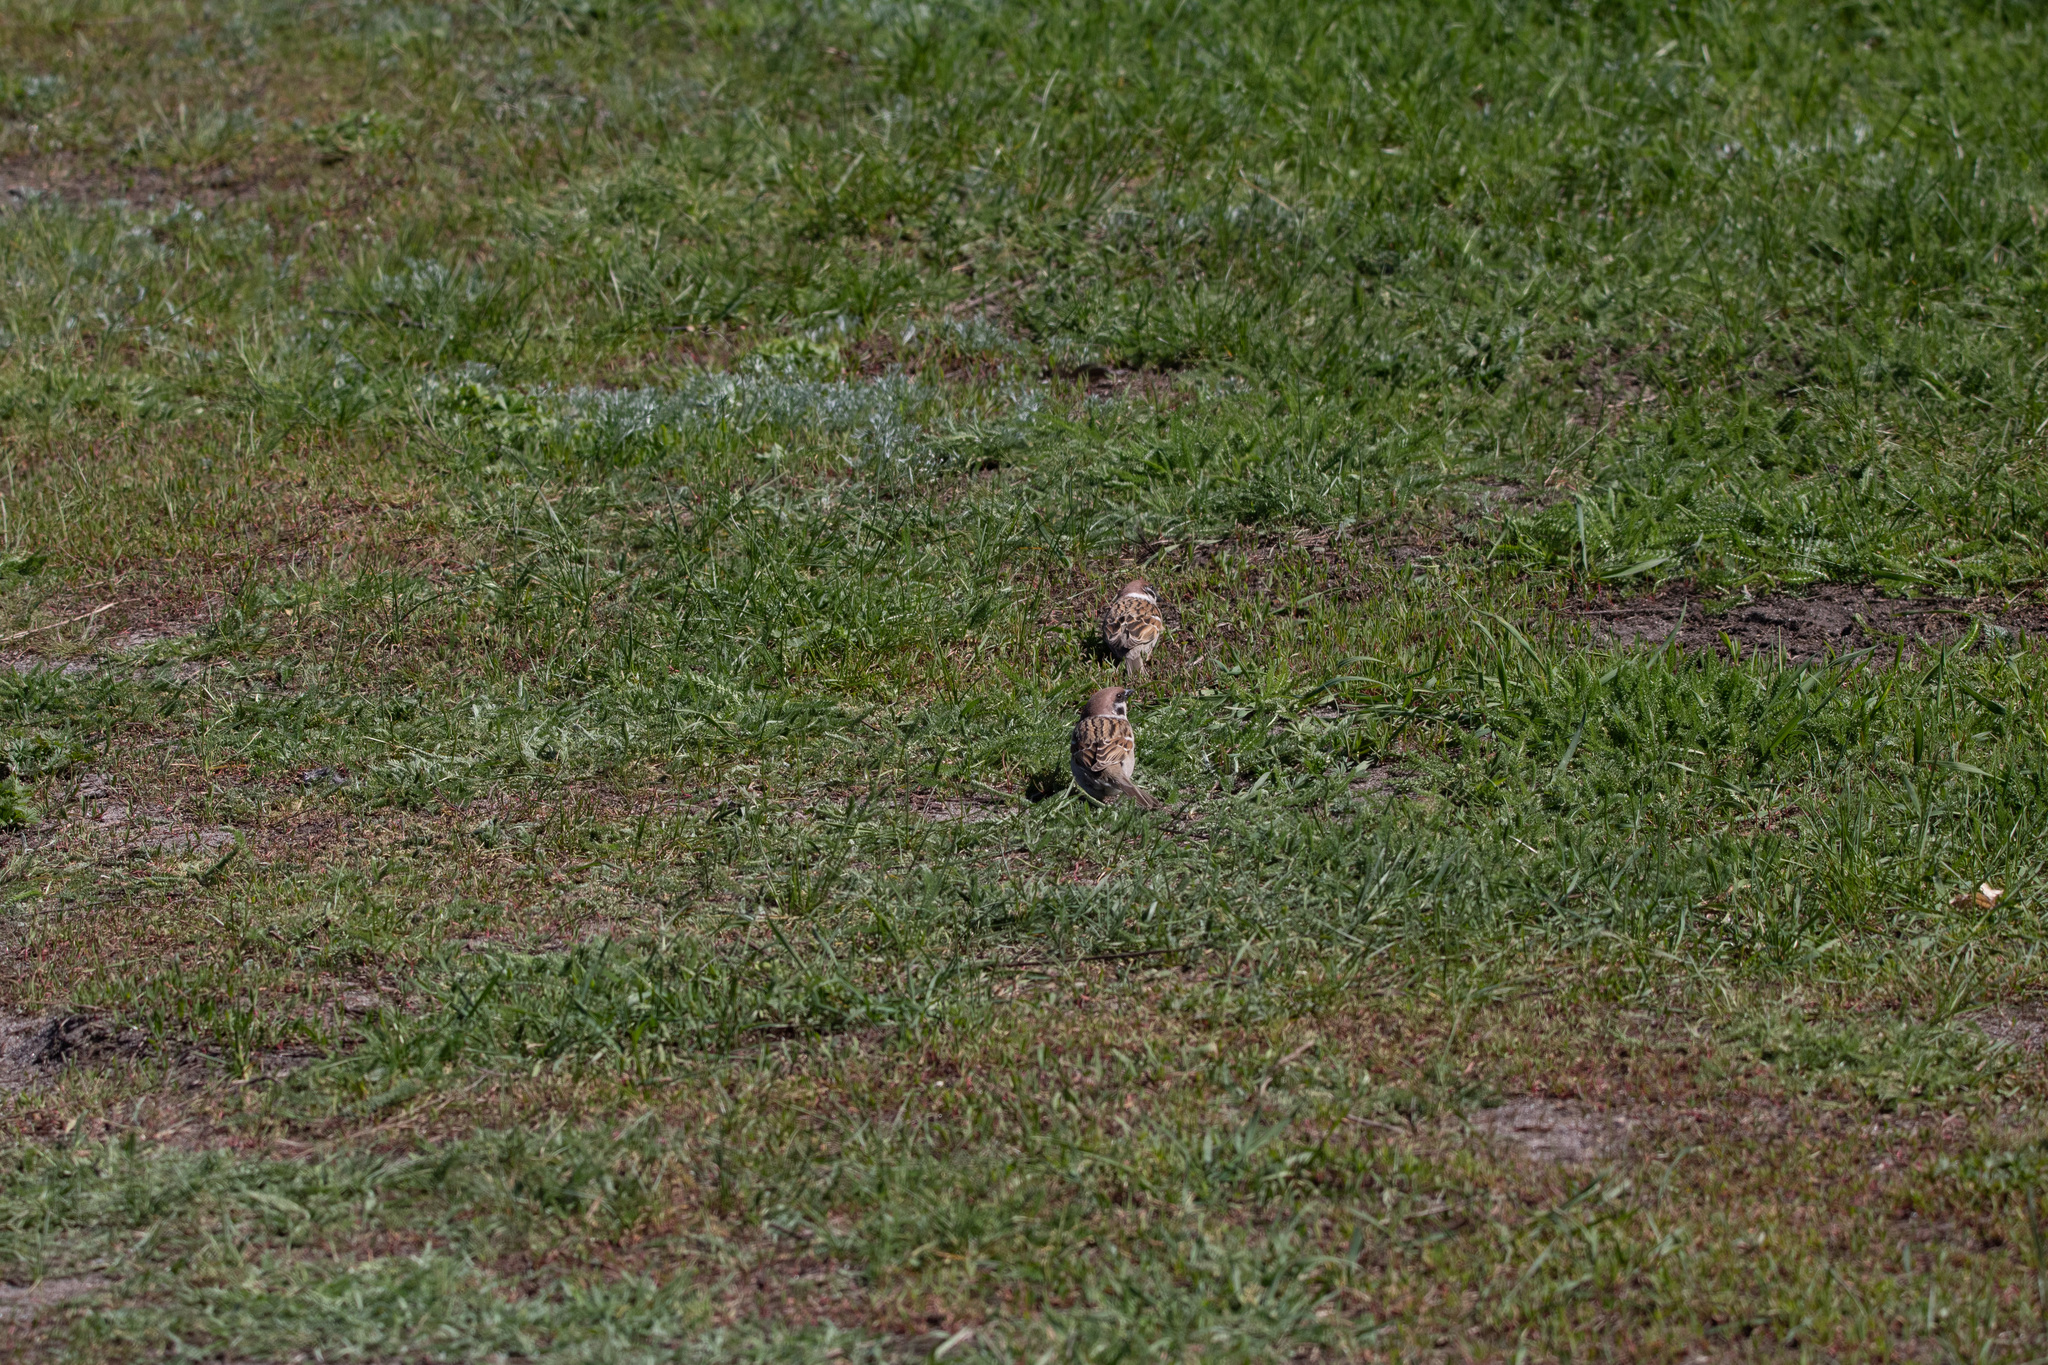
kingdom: Animalia
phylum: Chordata
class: Aves
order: Passeriformes
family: Passeridae
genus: Passer
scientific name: Passer montanus
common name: Eurasian tree sparrow
